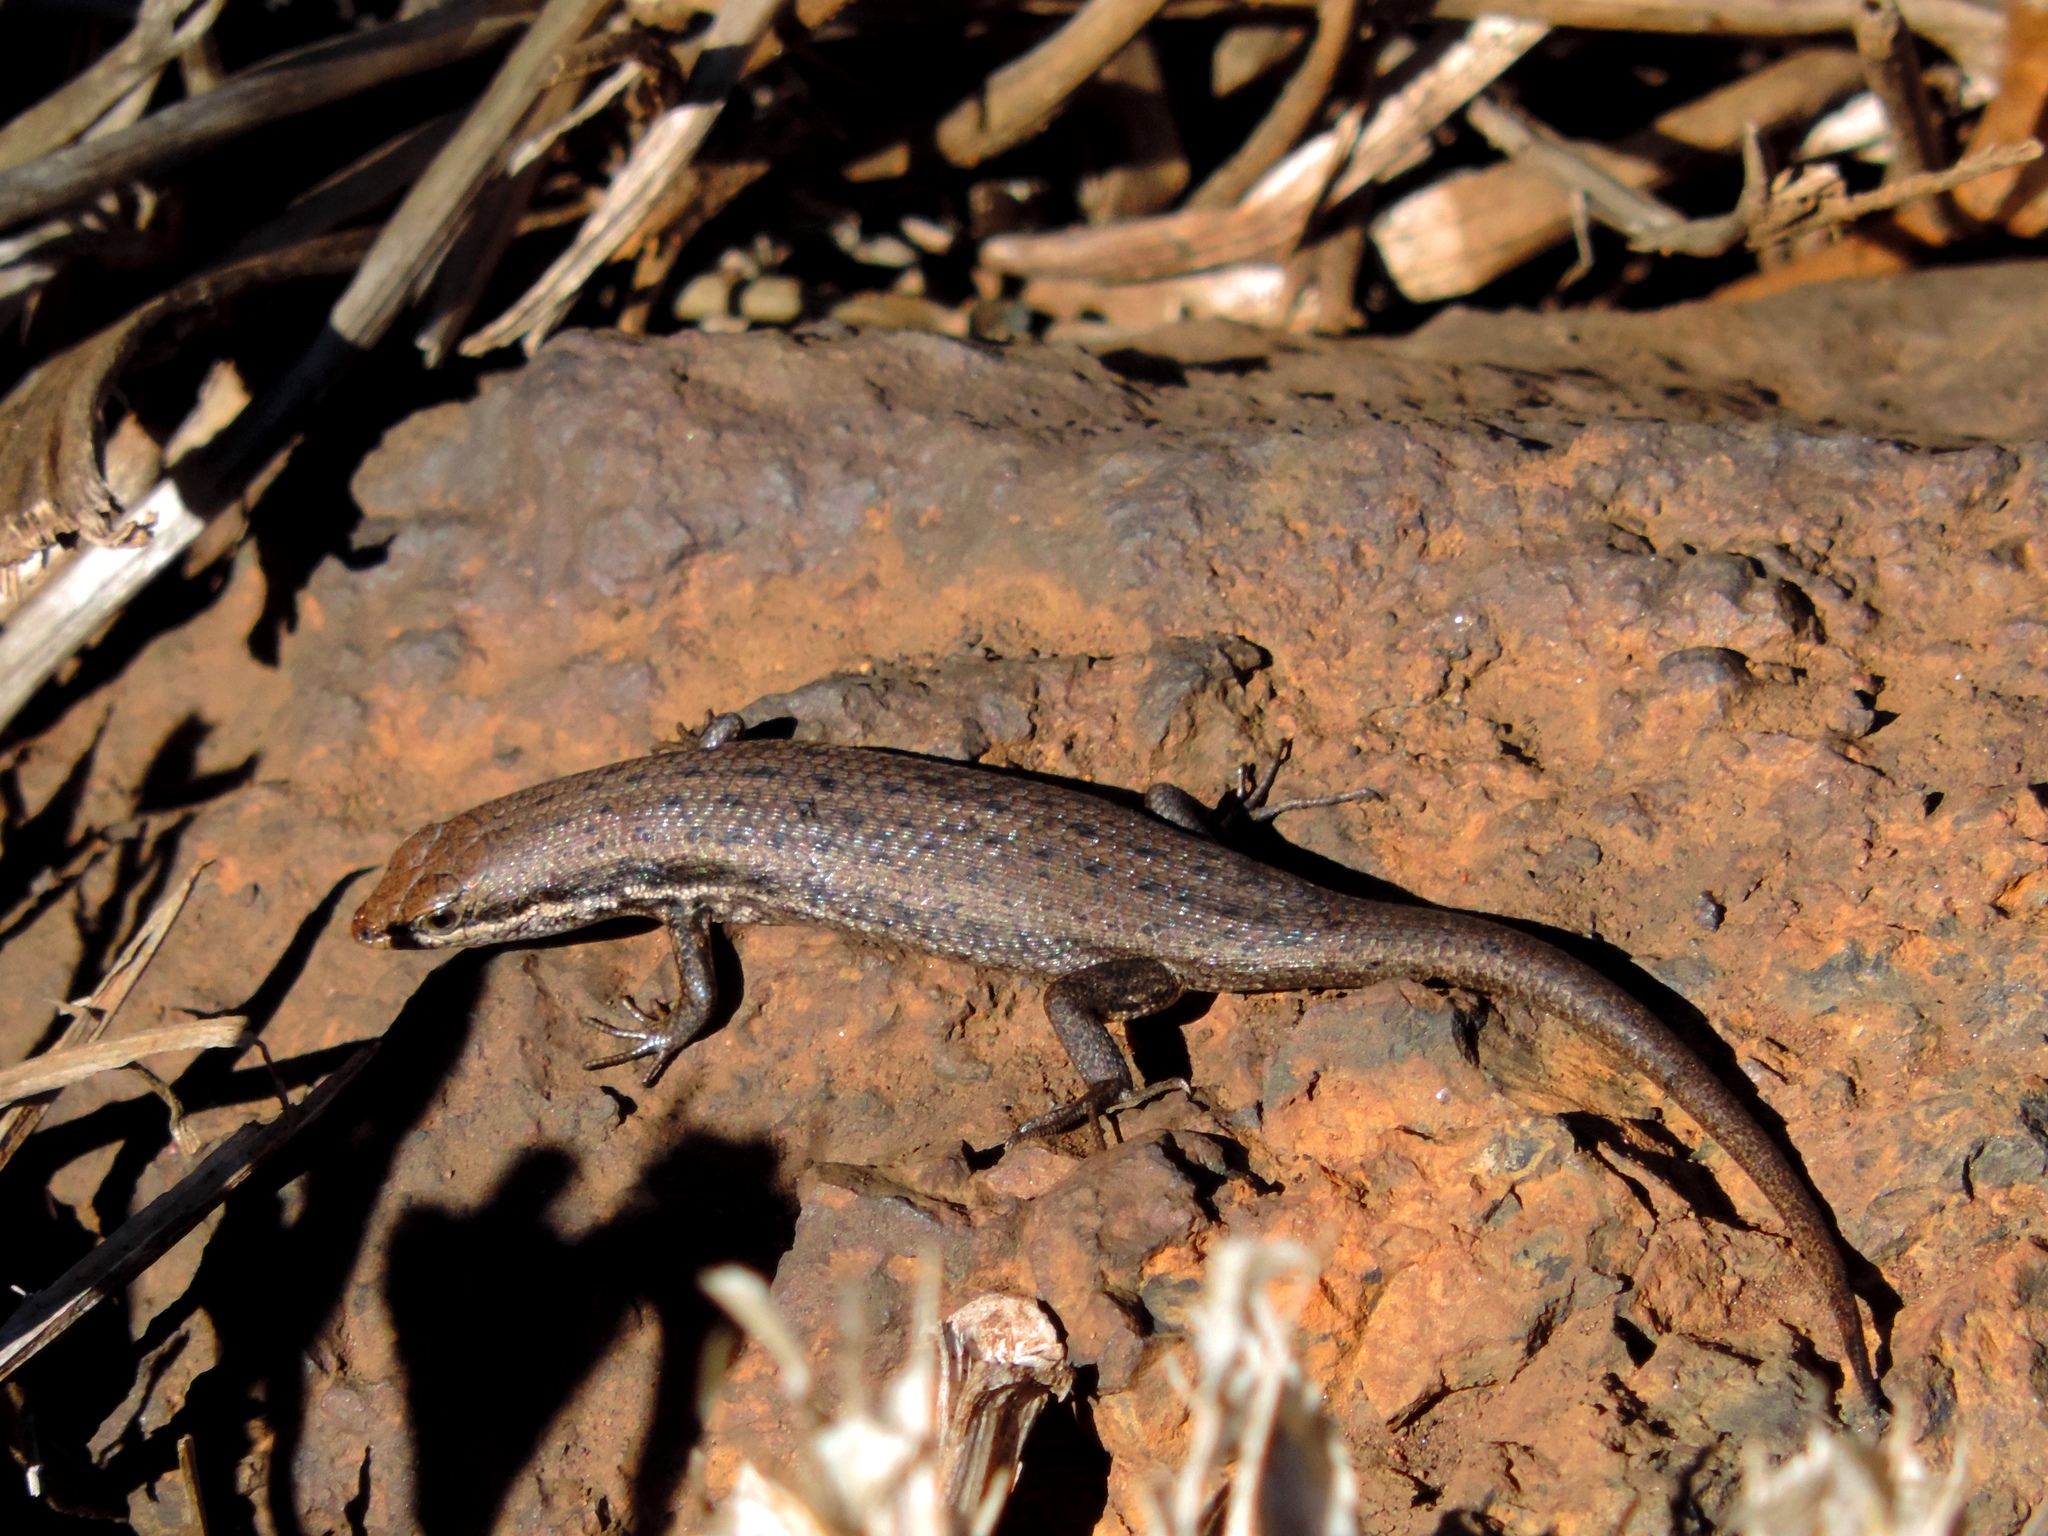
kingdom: Animalia
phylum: Chordata
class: Squamata
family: Scincidae
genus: Trachylepis
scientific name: Trachylepis variegata
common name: Variegated skink
